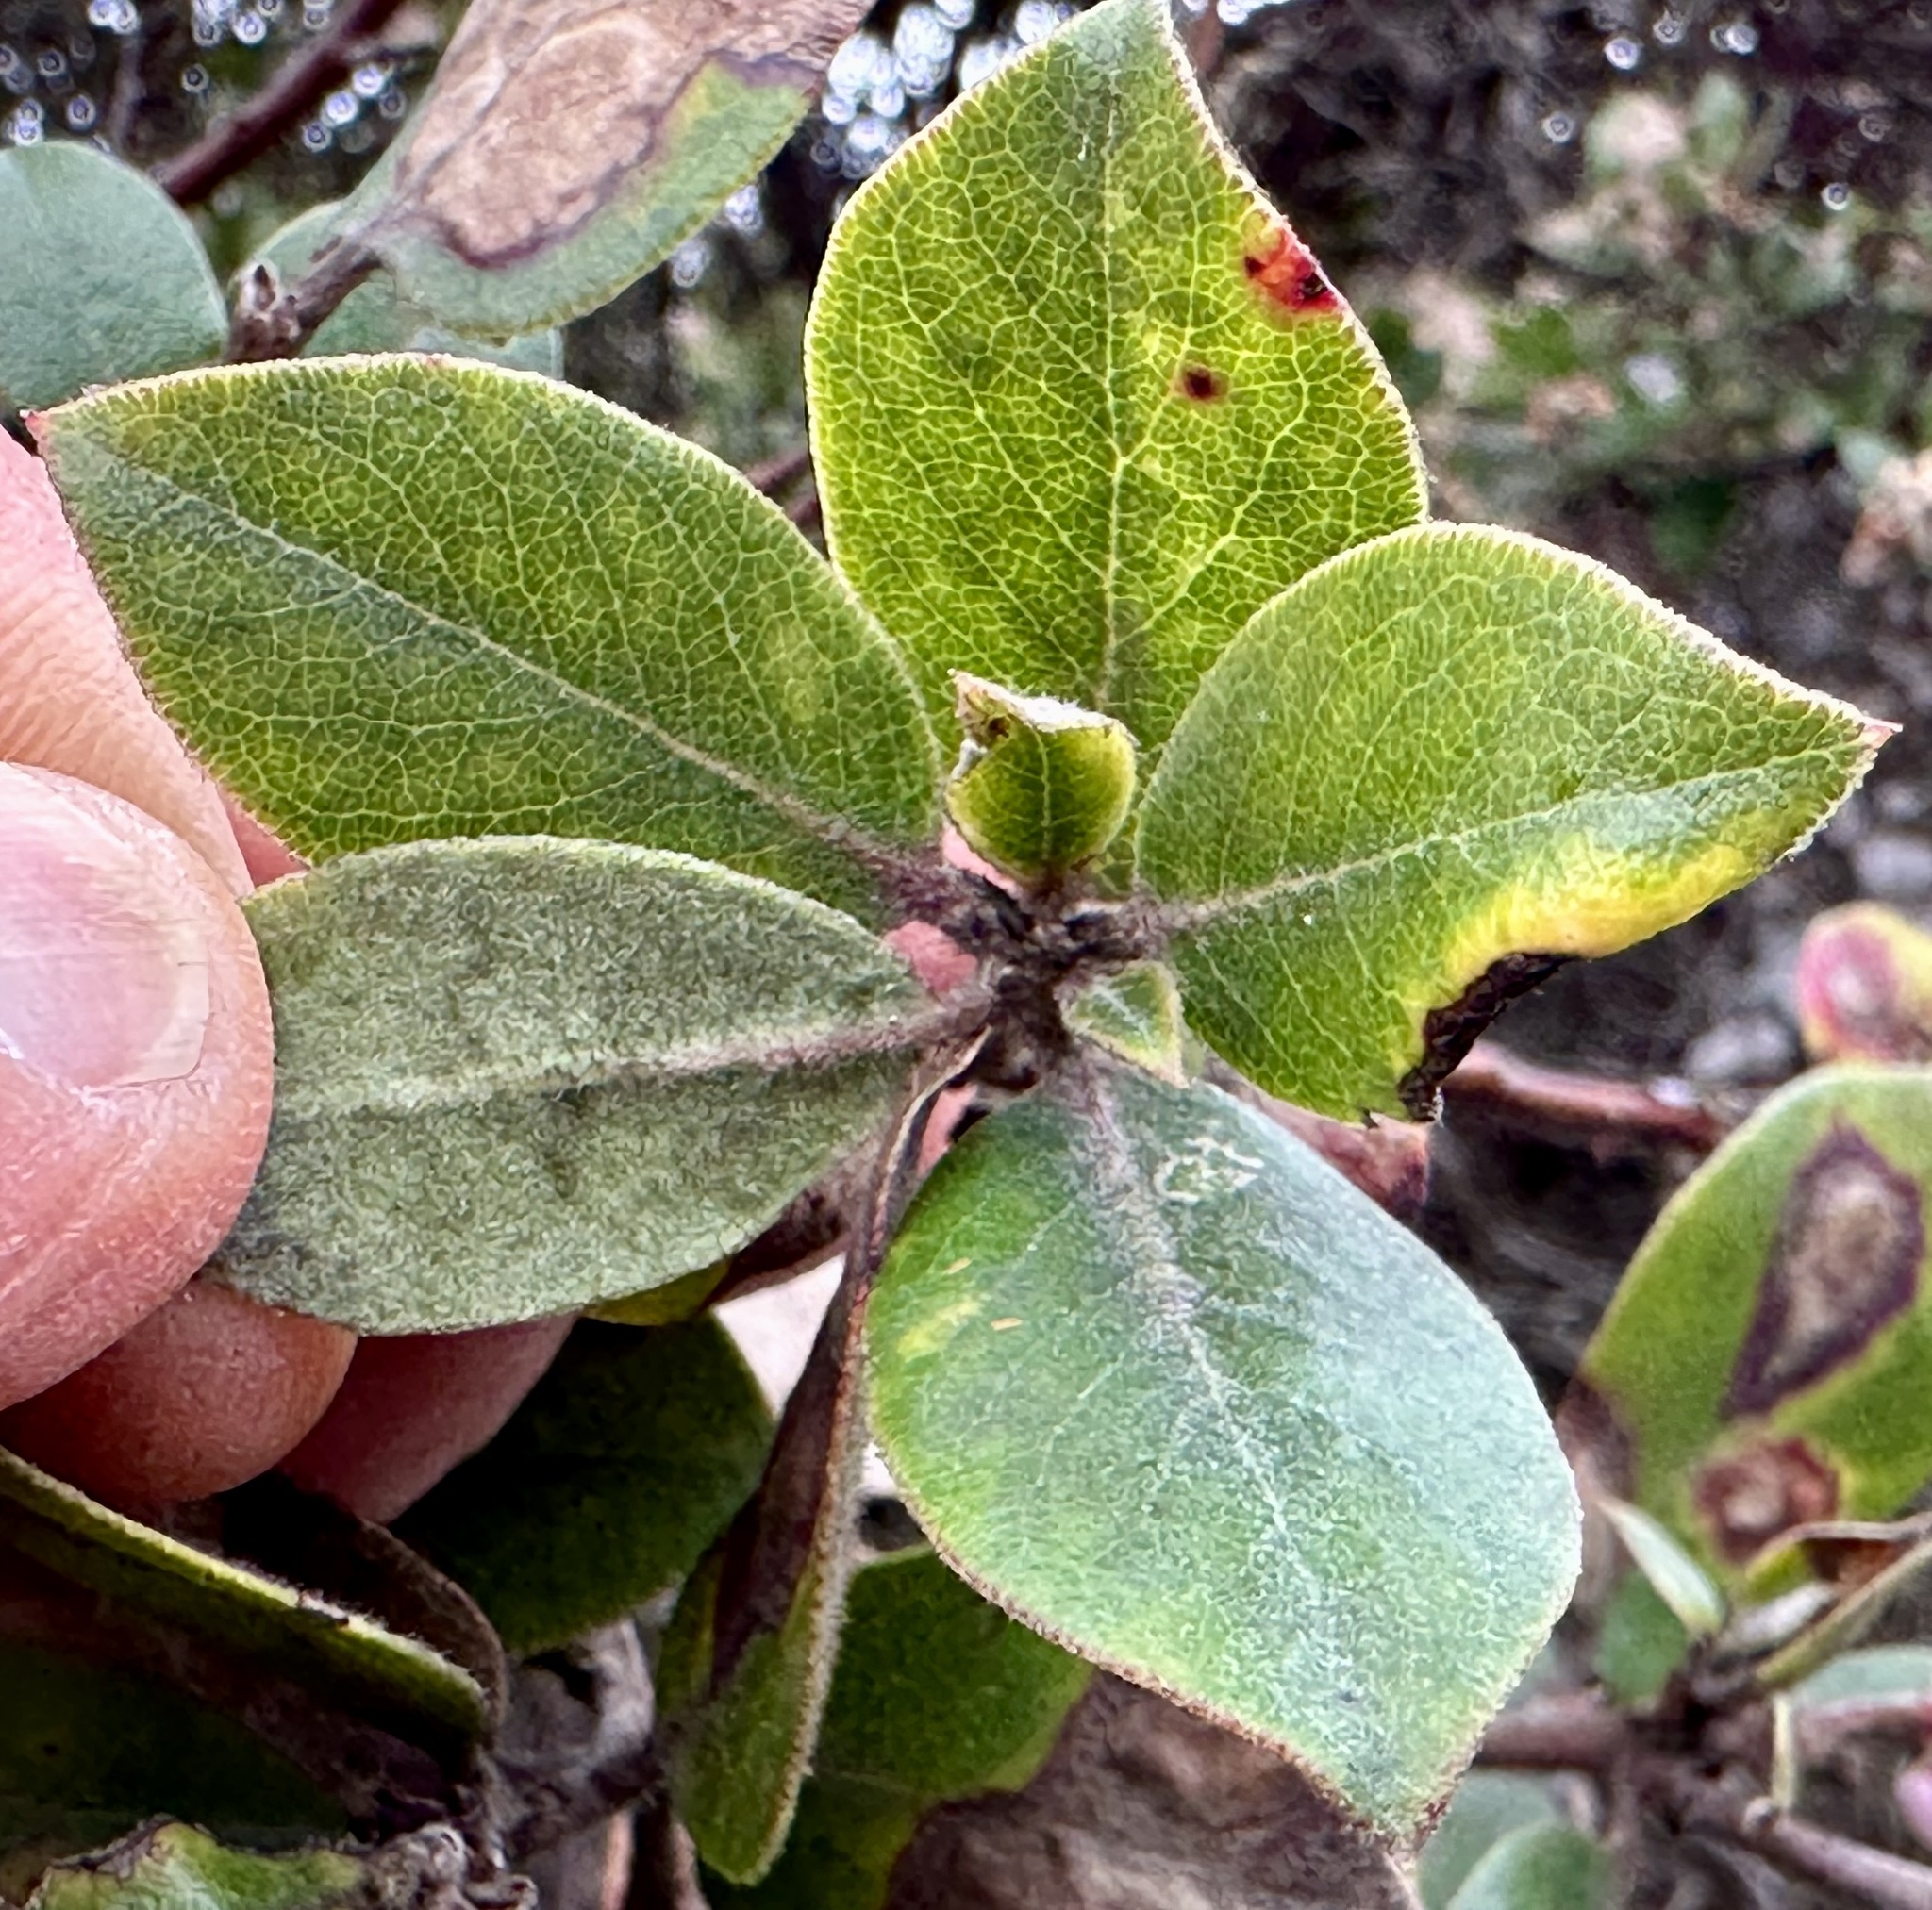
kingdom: Plantae
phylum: Tracheophyta
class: Magnoliopsida
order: Ericales
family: Ericaceae
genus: Arctostaphylos
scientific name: Arctostaphylos tomentosa
